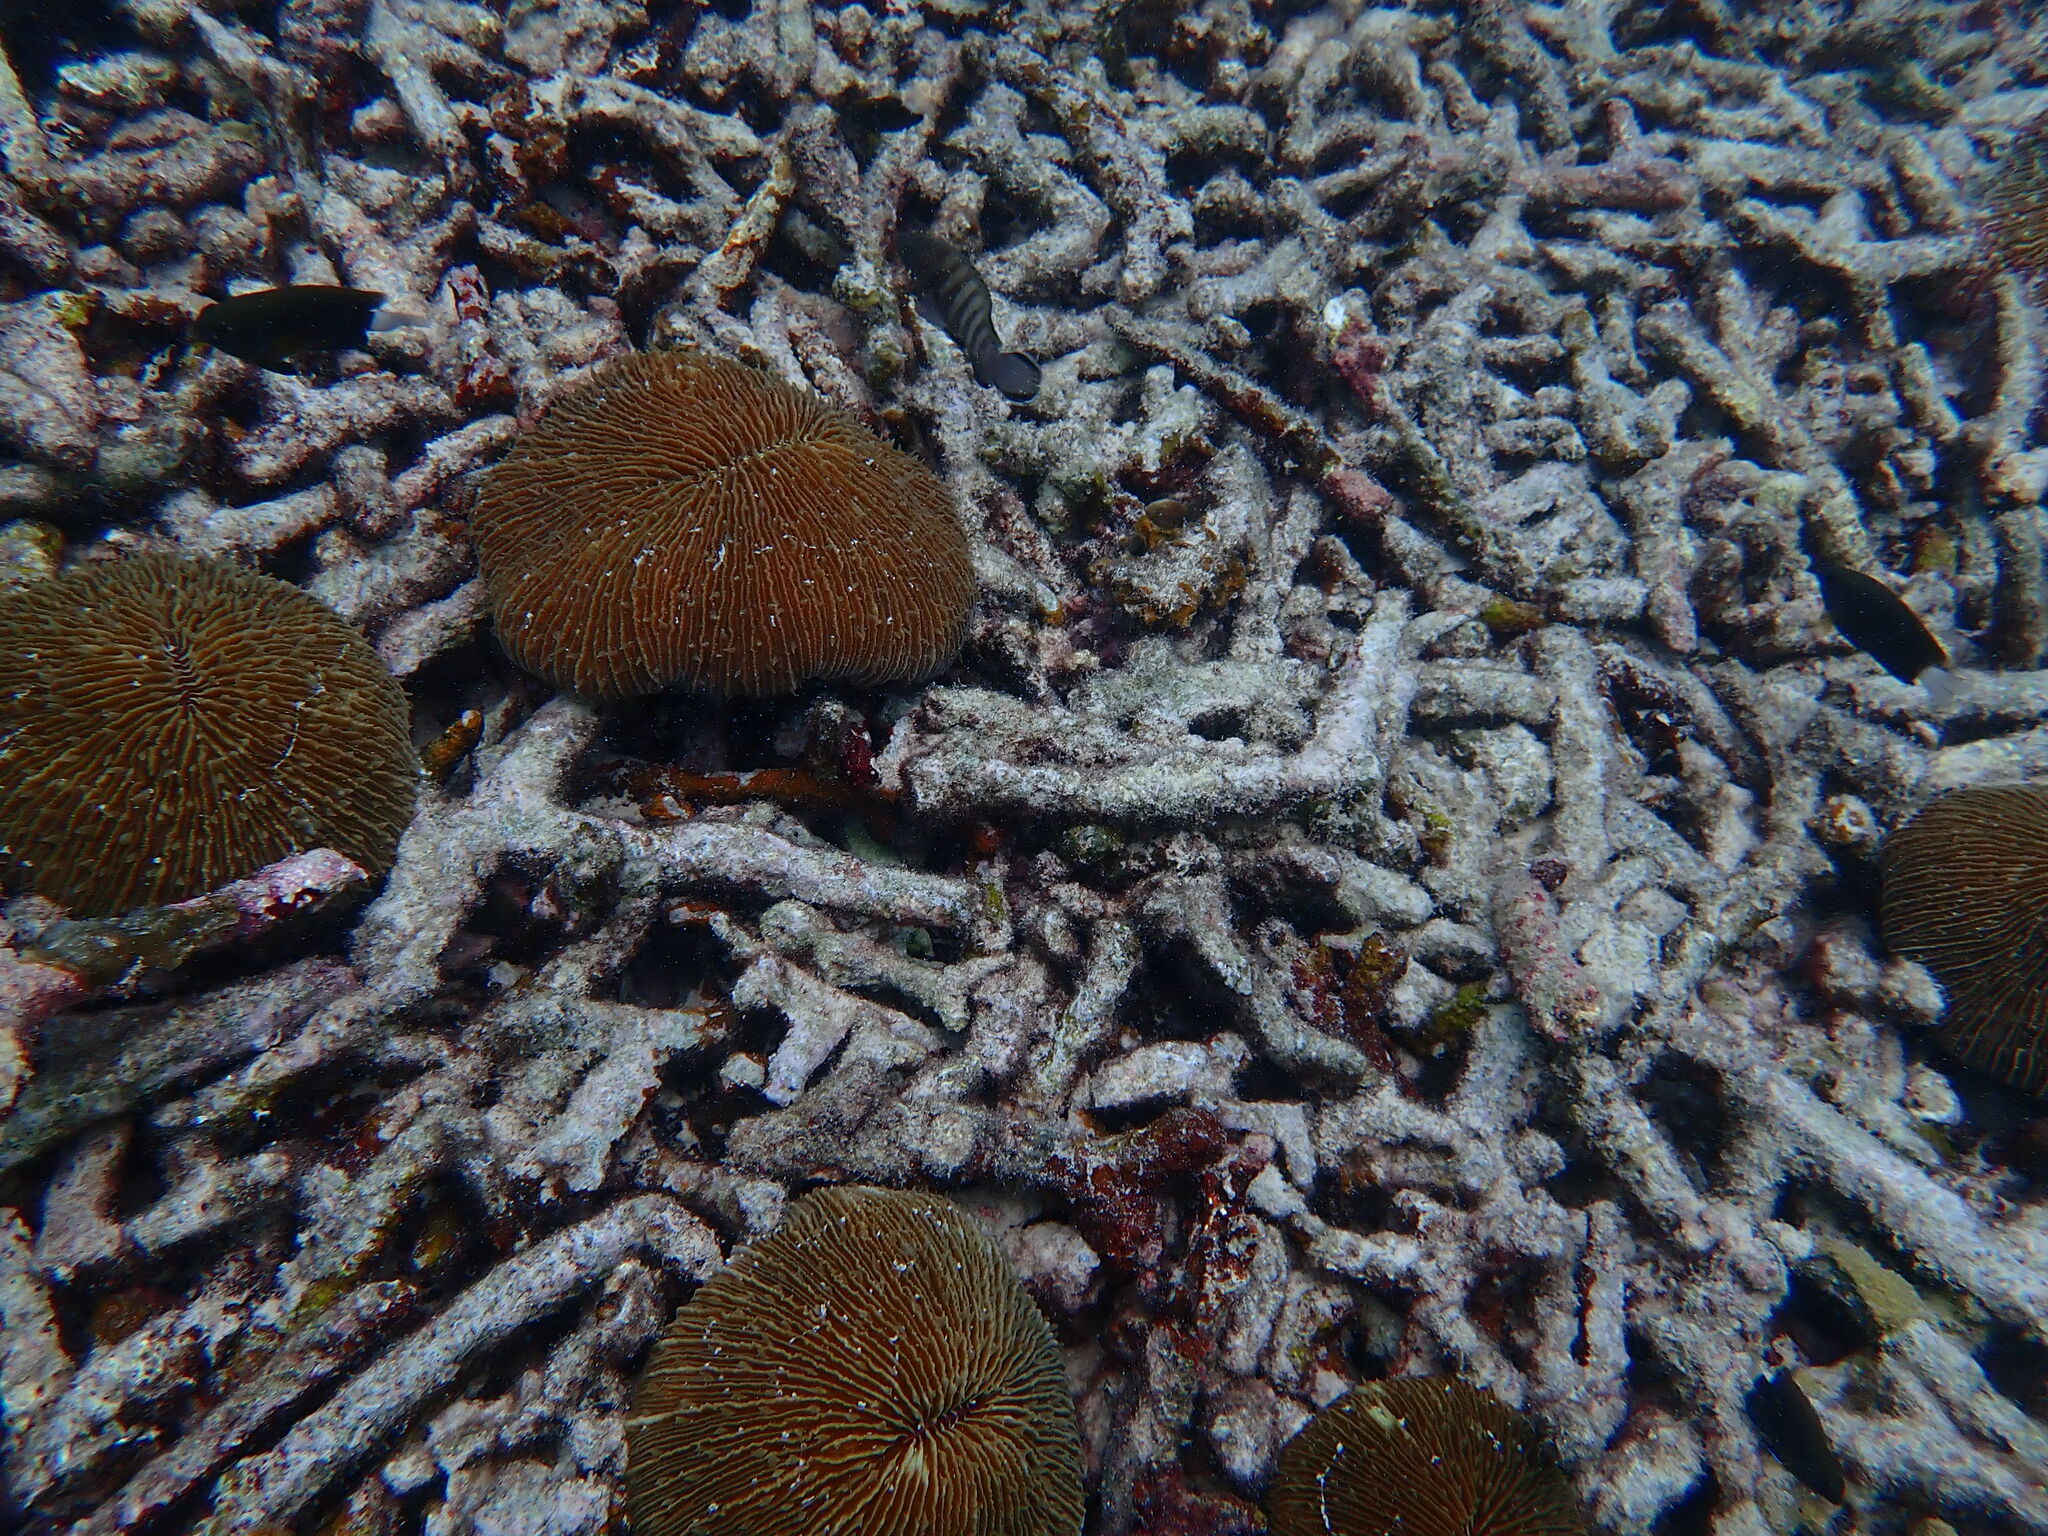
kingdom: Animalia
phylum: Cnidaria
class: Anthozoa
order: Scleractinia
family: Fungiidae
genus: Fungia
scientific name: Fungia fungites
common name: Mushroom coral
